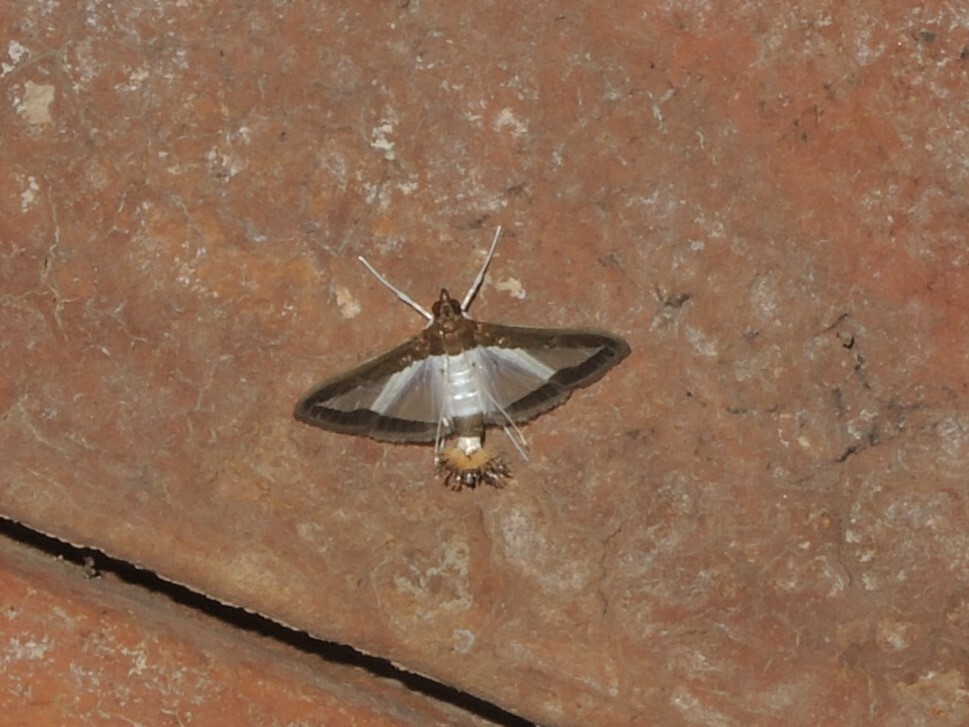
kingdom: Animalia
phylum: Arthropoda
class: Insecta
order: Lepidoptera
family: Crambidae
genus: Diaphania
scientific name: Diaphania indica
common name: Cucumber moth
